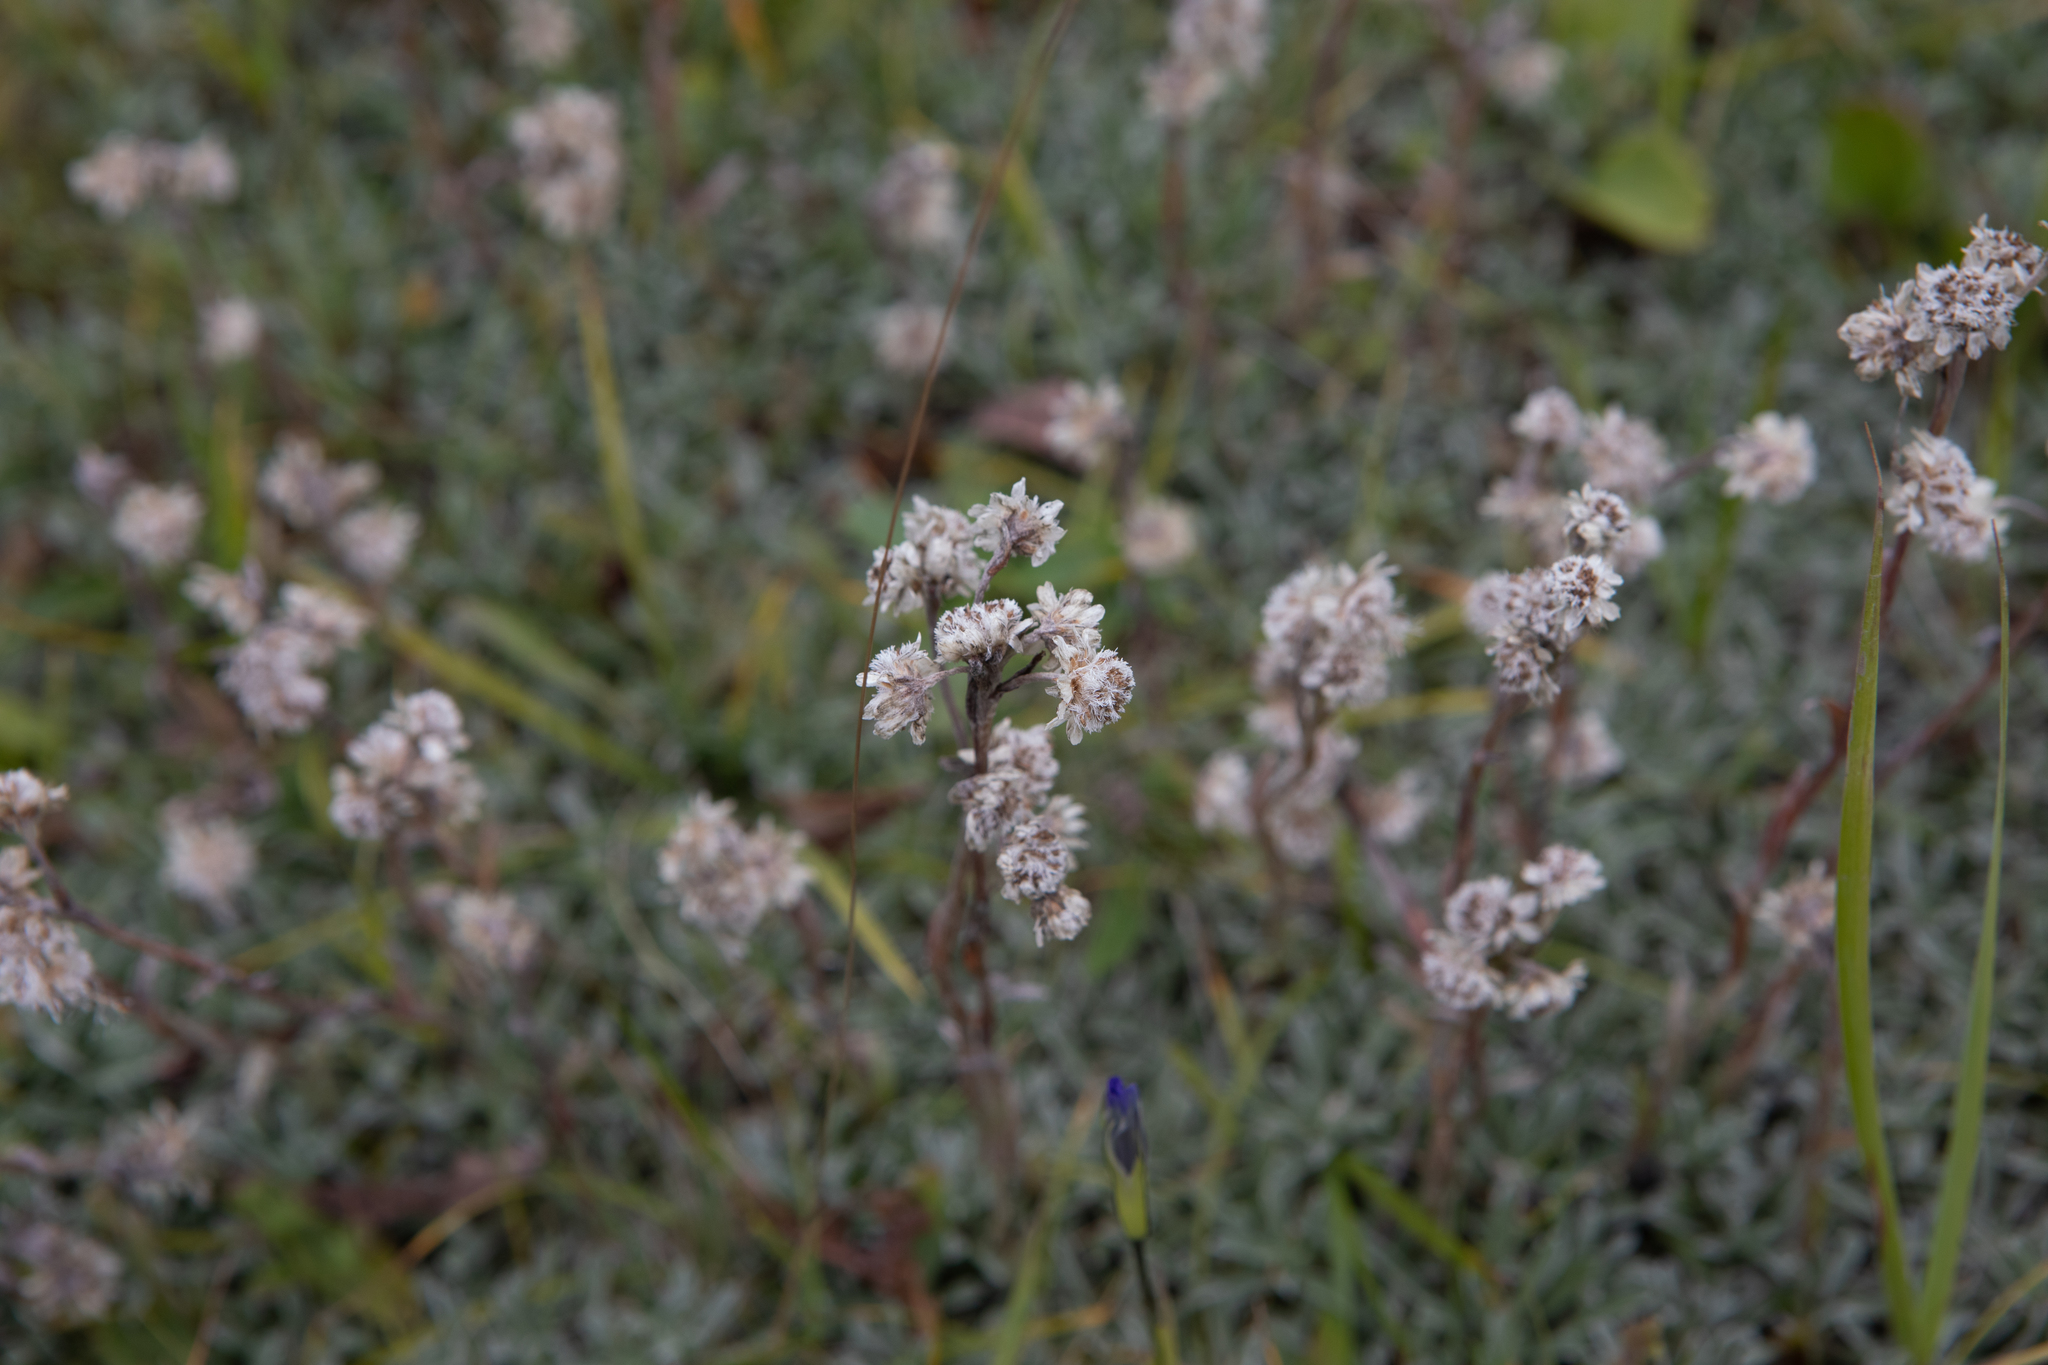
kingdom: Plantae
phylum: Tracheophyta
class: Magnoliopsida
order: Asterales
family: Asteraceae
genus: Antennaria
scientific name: Antennaria dioica
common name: Mountain everlasting
